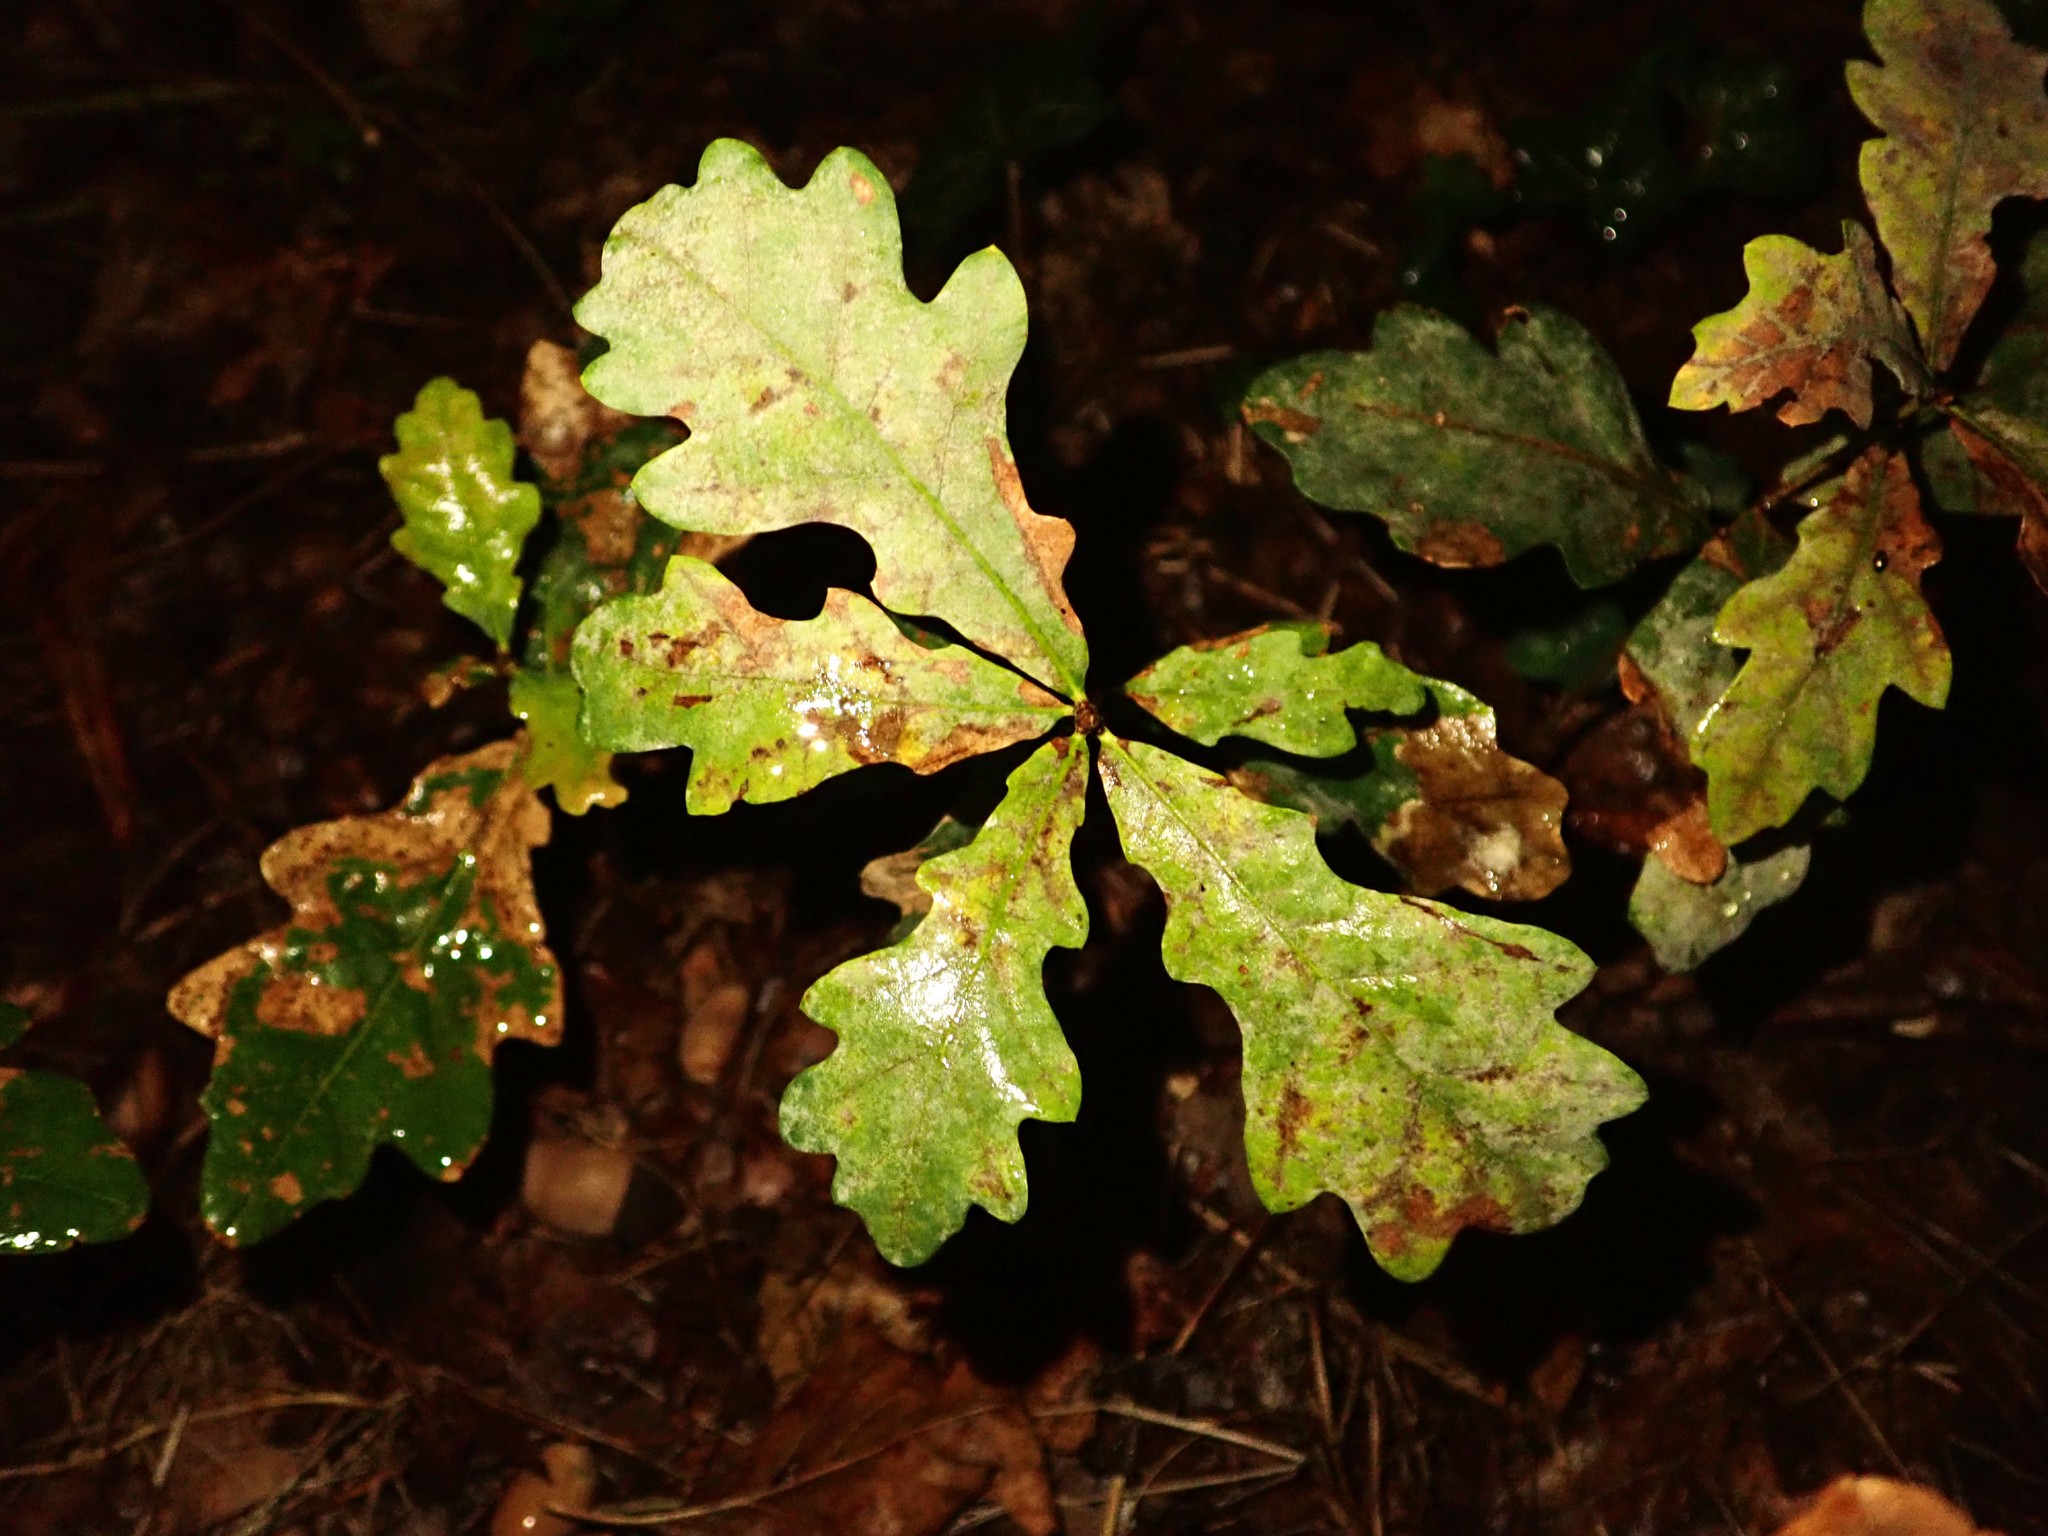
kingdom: Plantae
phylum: Tracheophyta
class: Magnoliopsida
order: Fagales
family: Fagaceae
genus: Quercus
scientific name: Quercus robur
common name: Pedunculate oak
